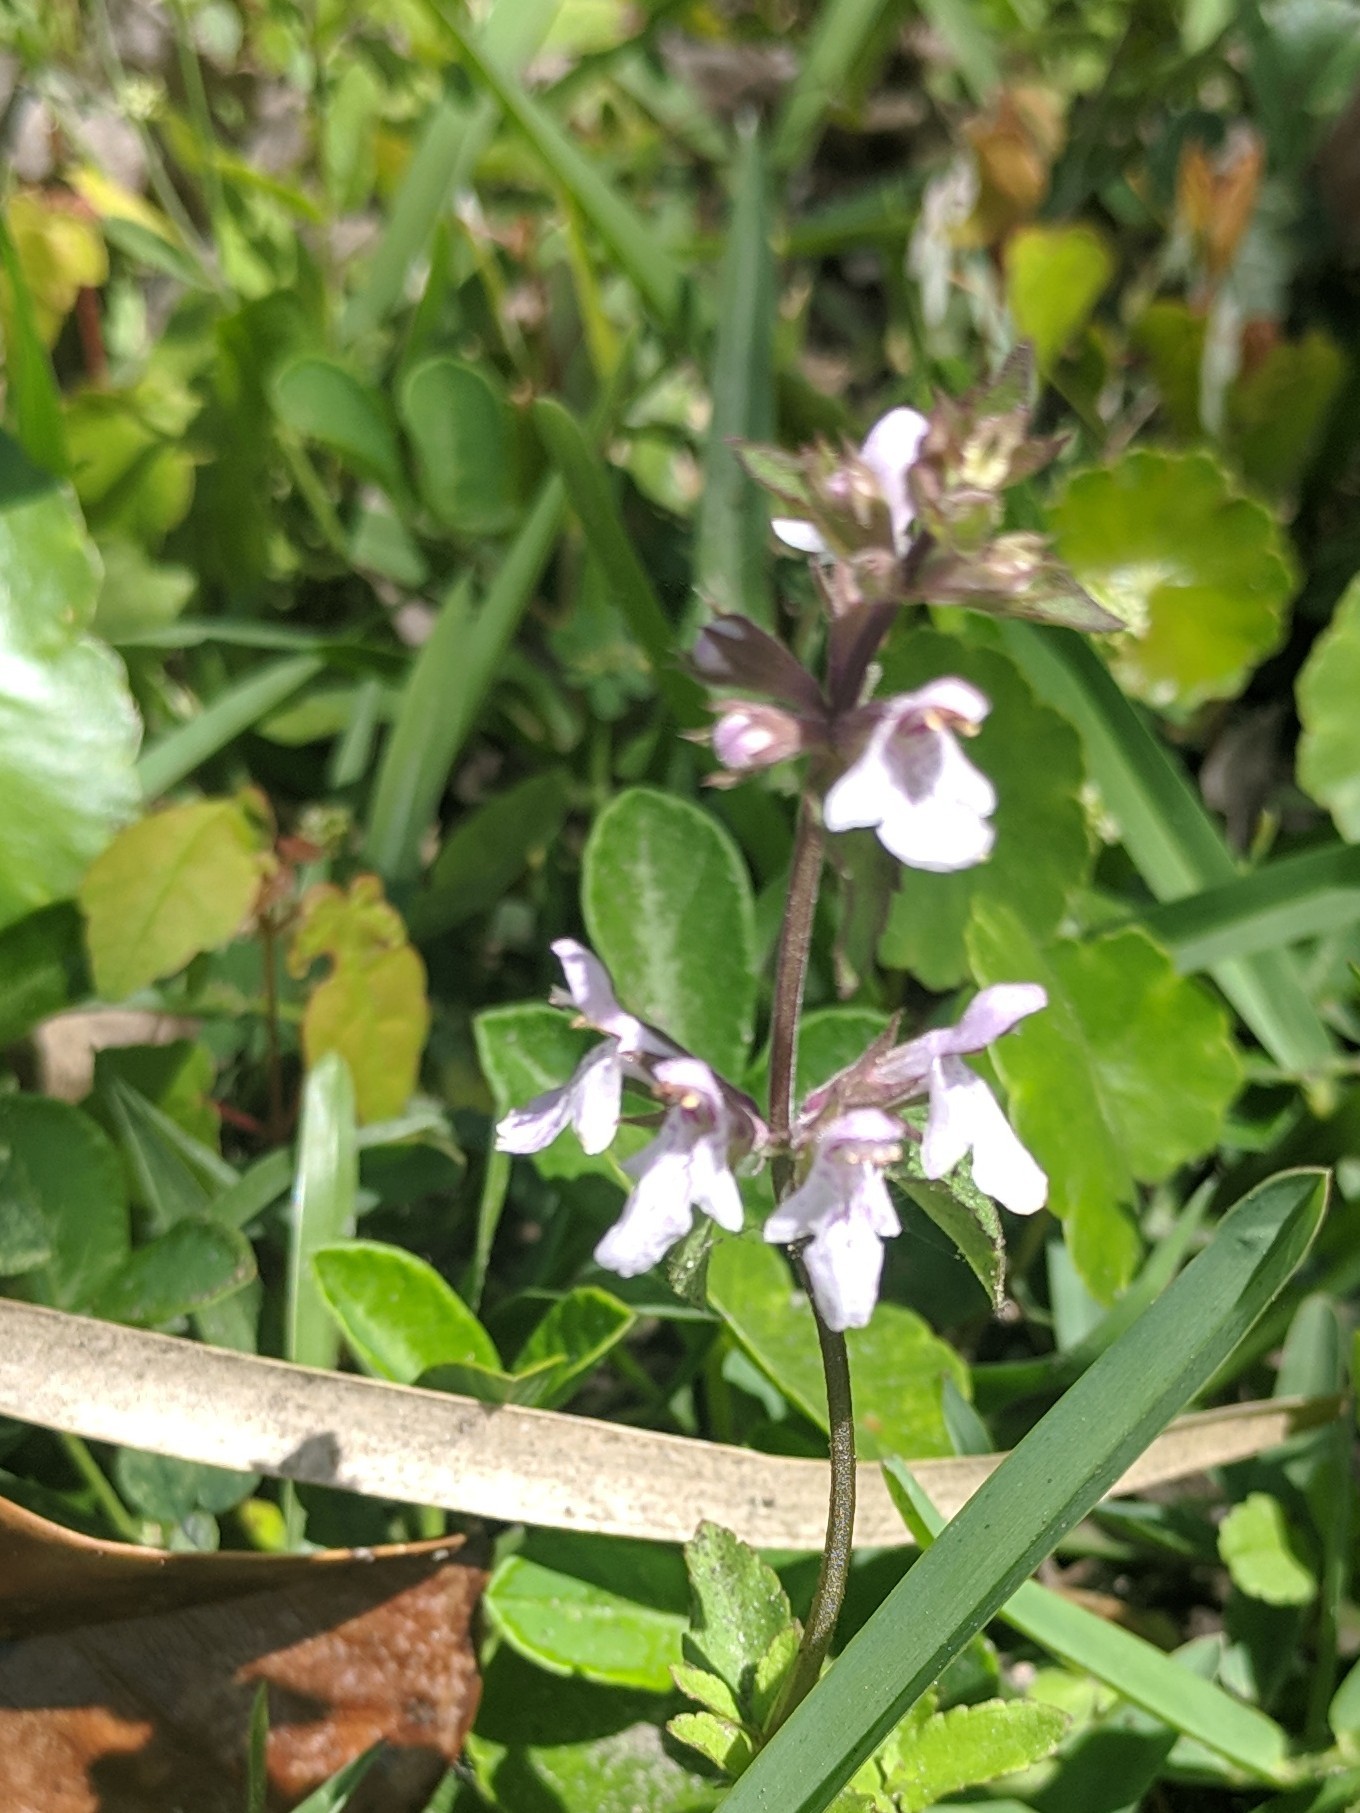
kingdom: Plantae
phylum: Tracheophyta
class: Magnoliopsida
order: Lamiales
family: Lamiaceae
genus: Stachys
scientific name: Stachys floridana
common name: Florida betony
